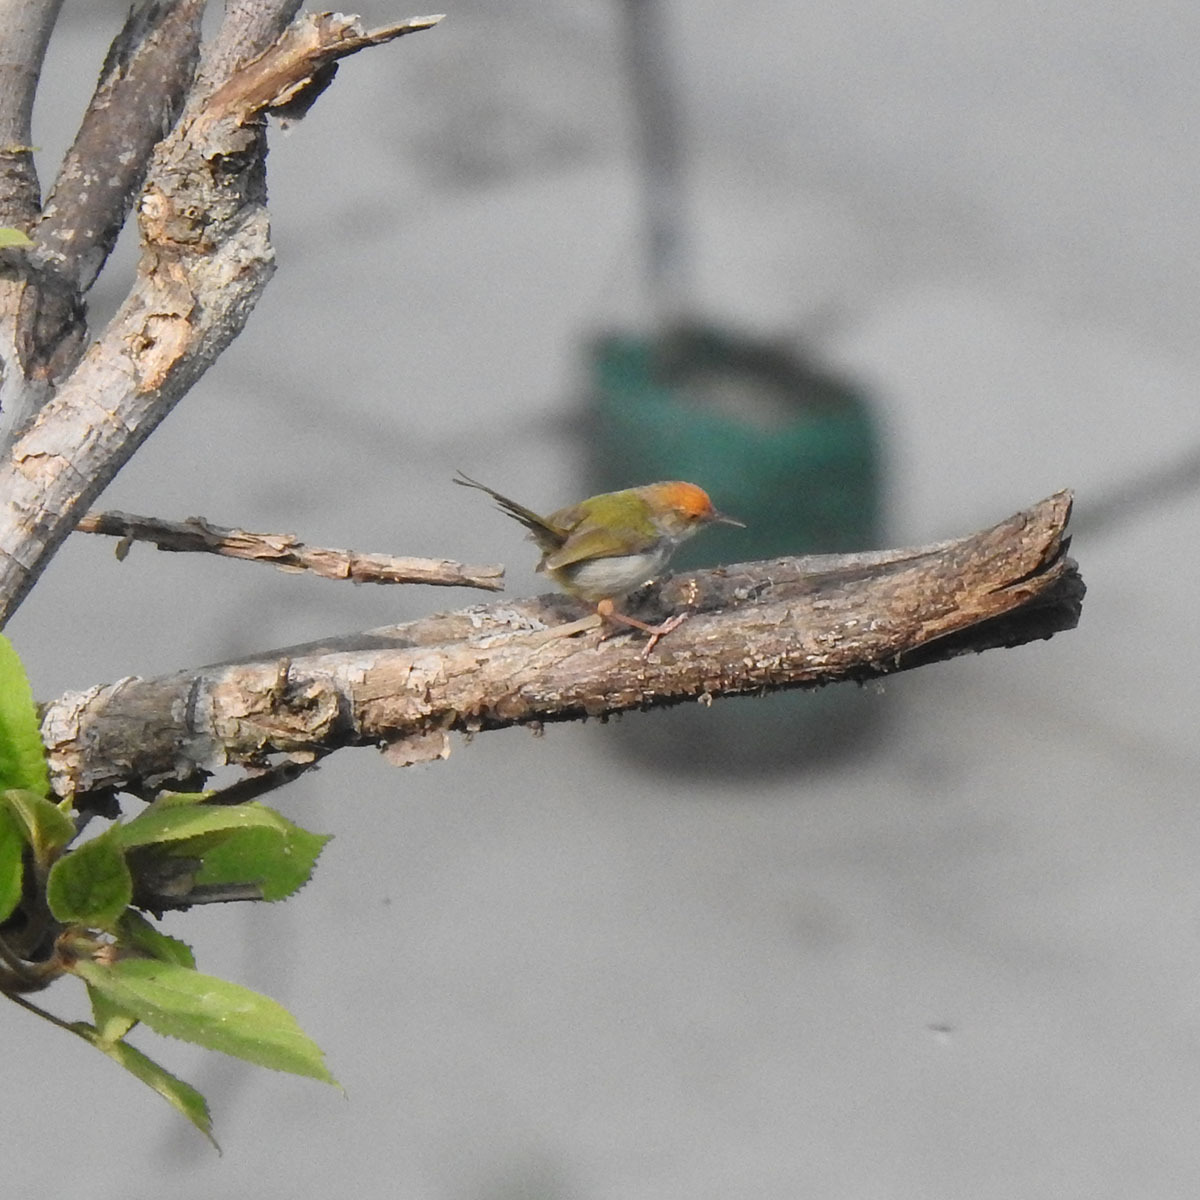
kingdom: Animalia
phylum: Chordata
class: Aves
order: Passeriformes
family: Cisticolidae
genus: Orthotomus
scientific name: Orthotomus sutorius
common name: Common tailorbird
